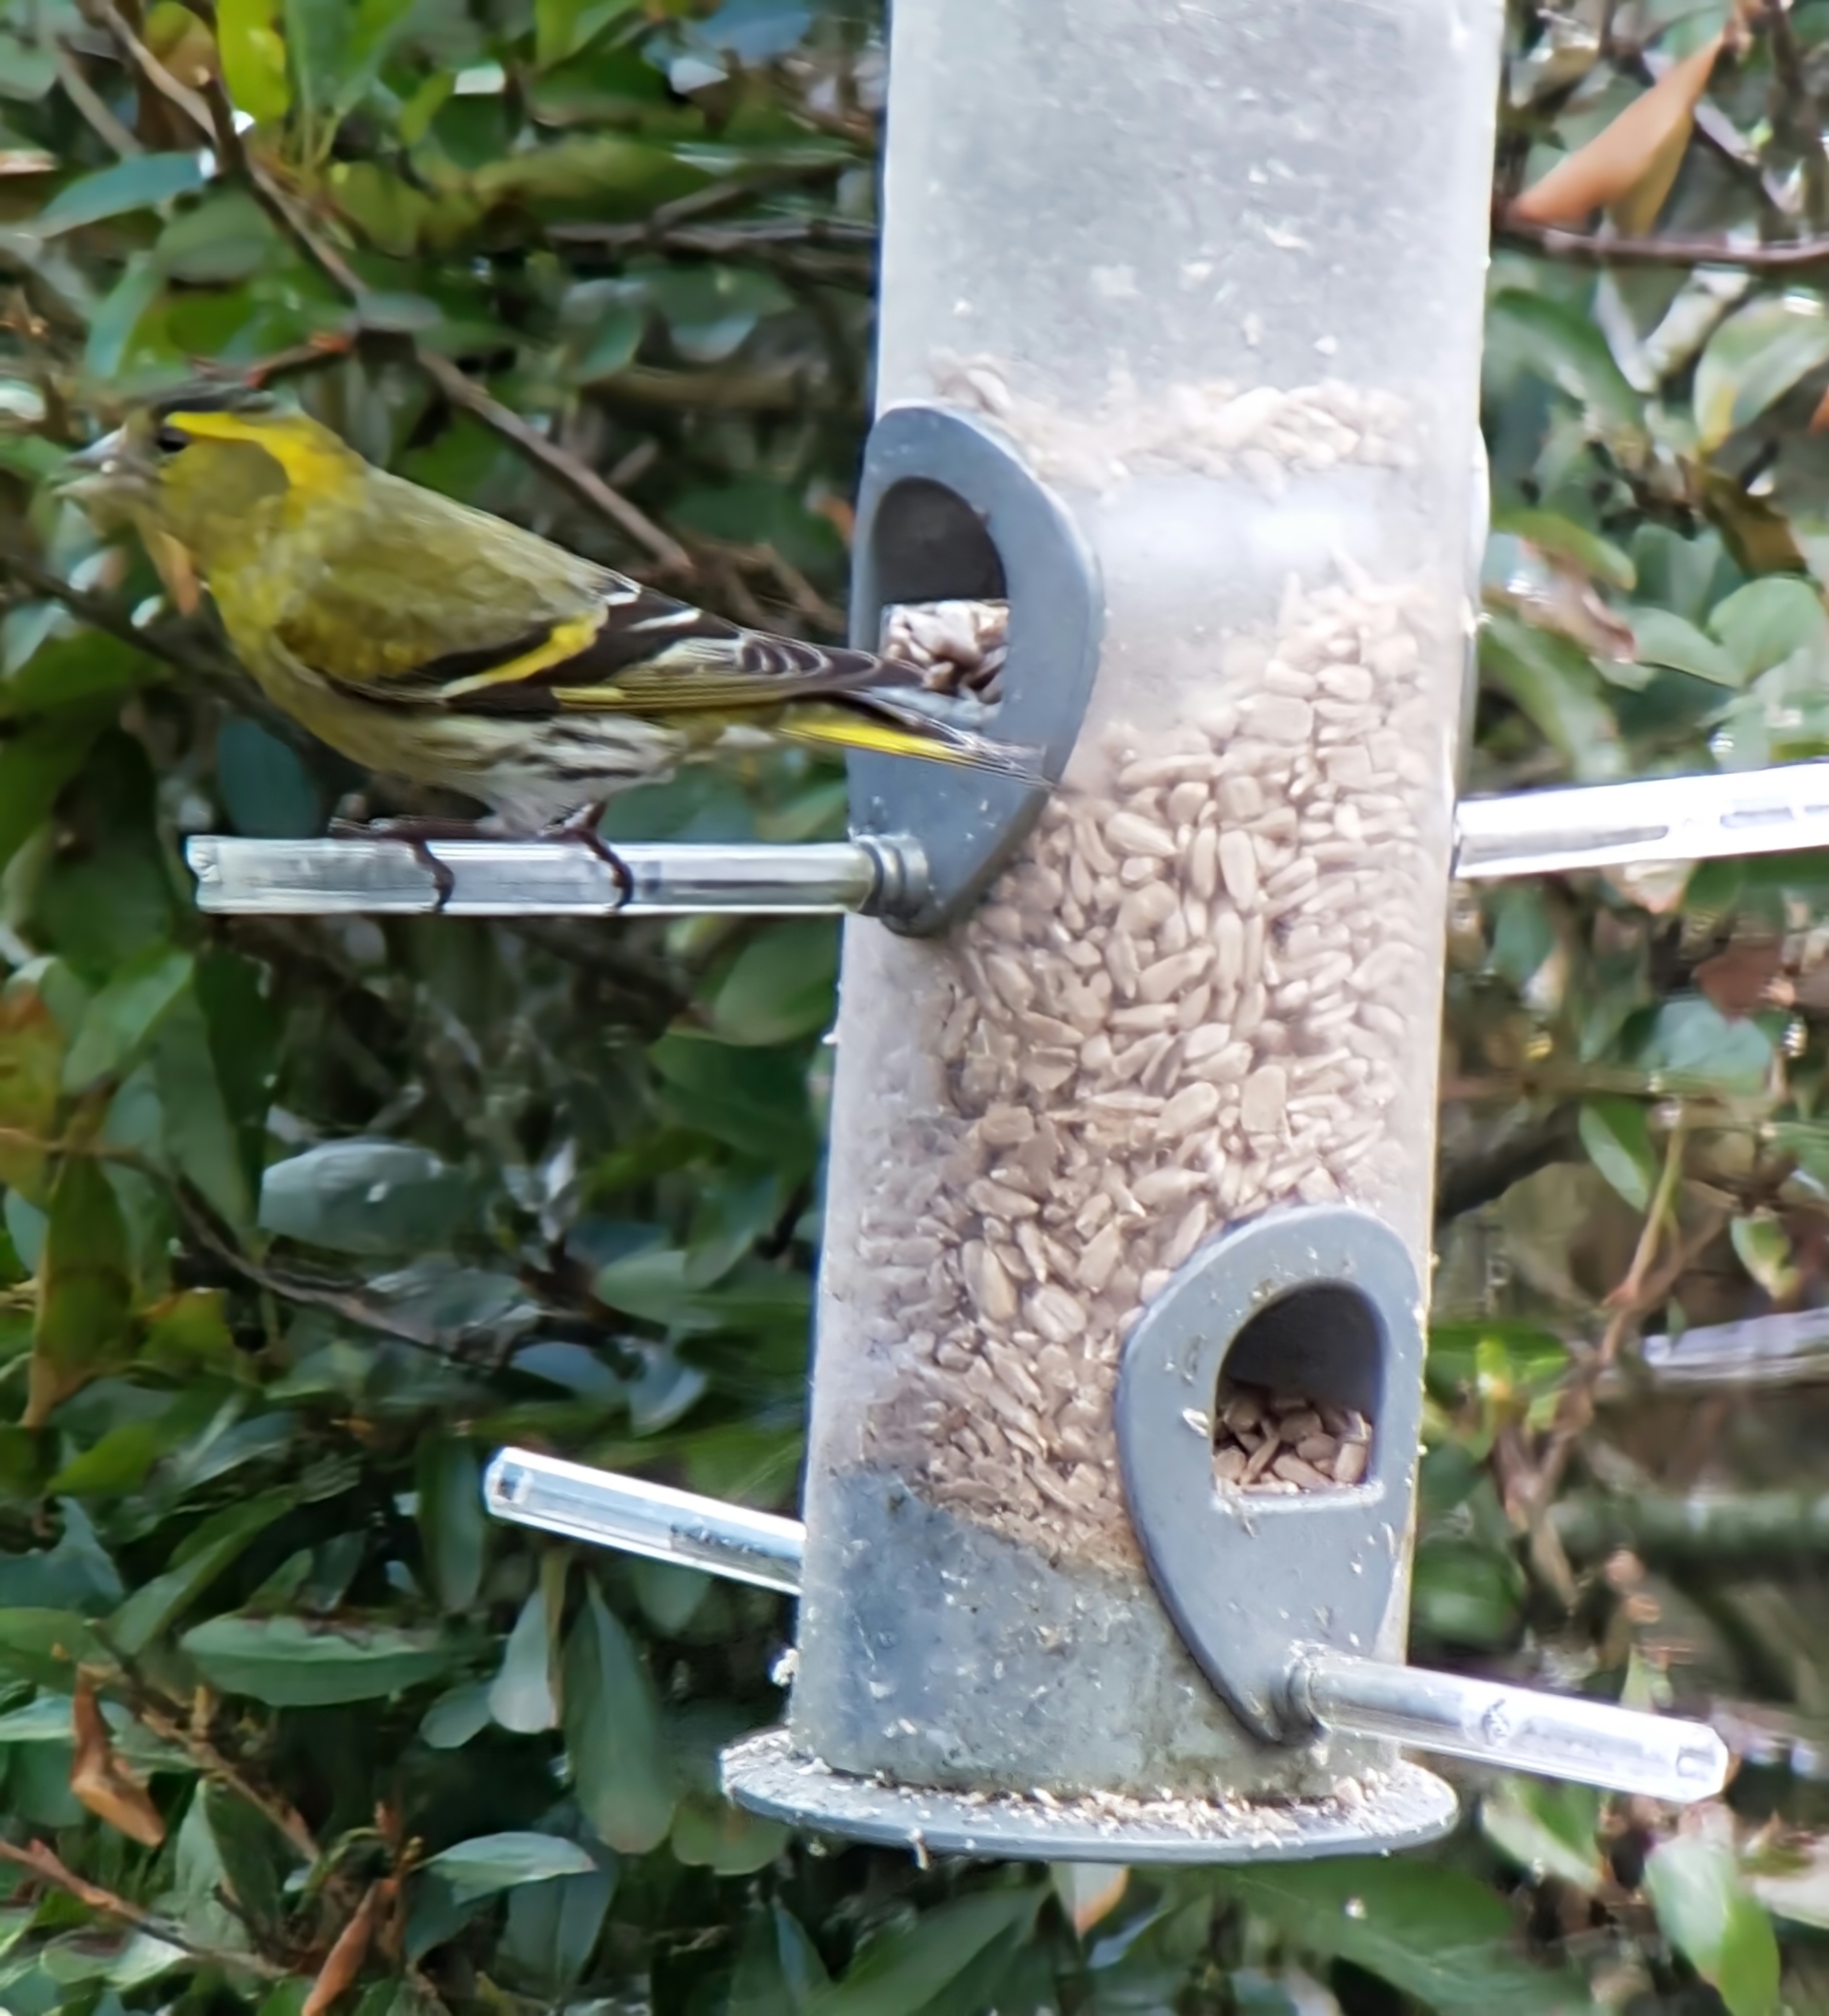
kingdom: Animalia
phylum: Chordata
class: Aves
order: Passeriformes
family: Fringillidae
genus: Spinus
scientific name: Spinus spinus
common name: Eurasian siskin
